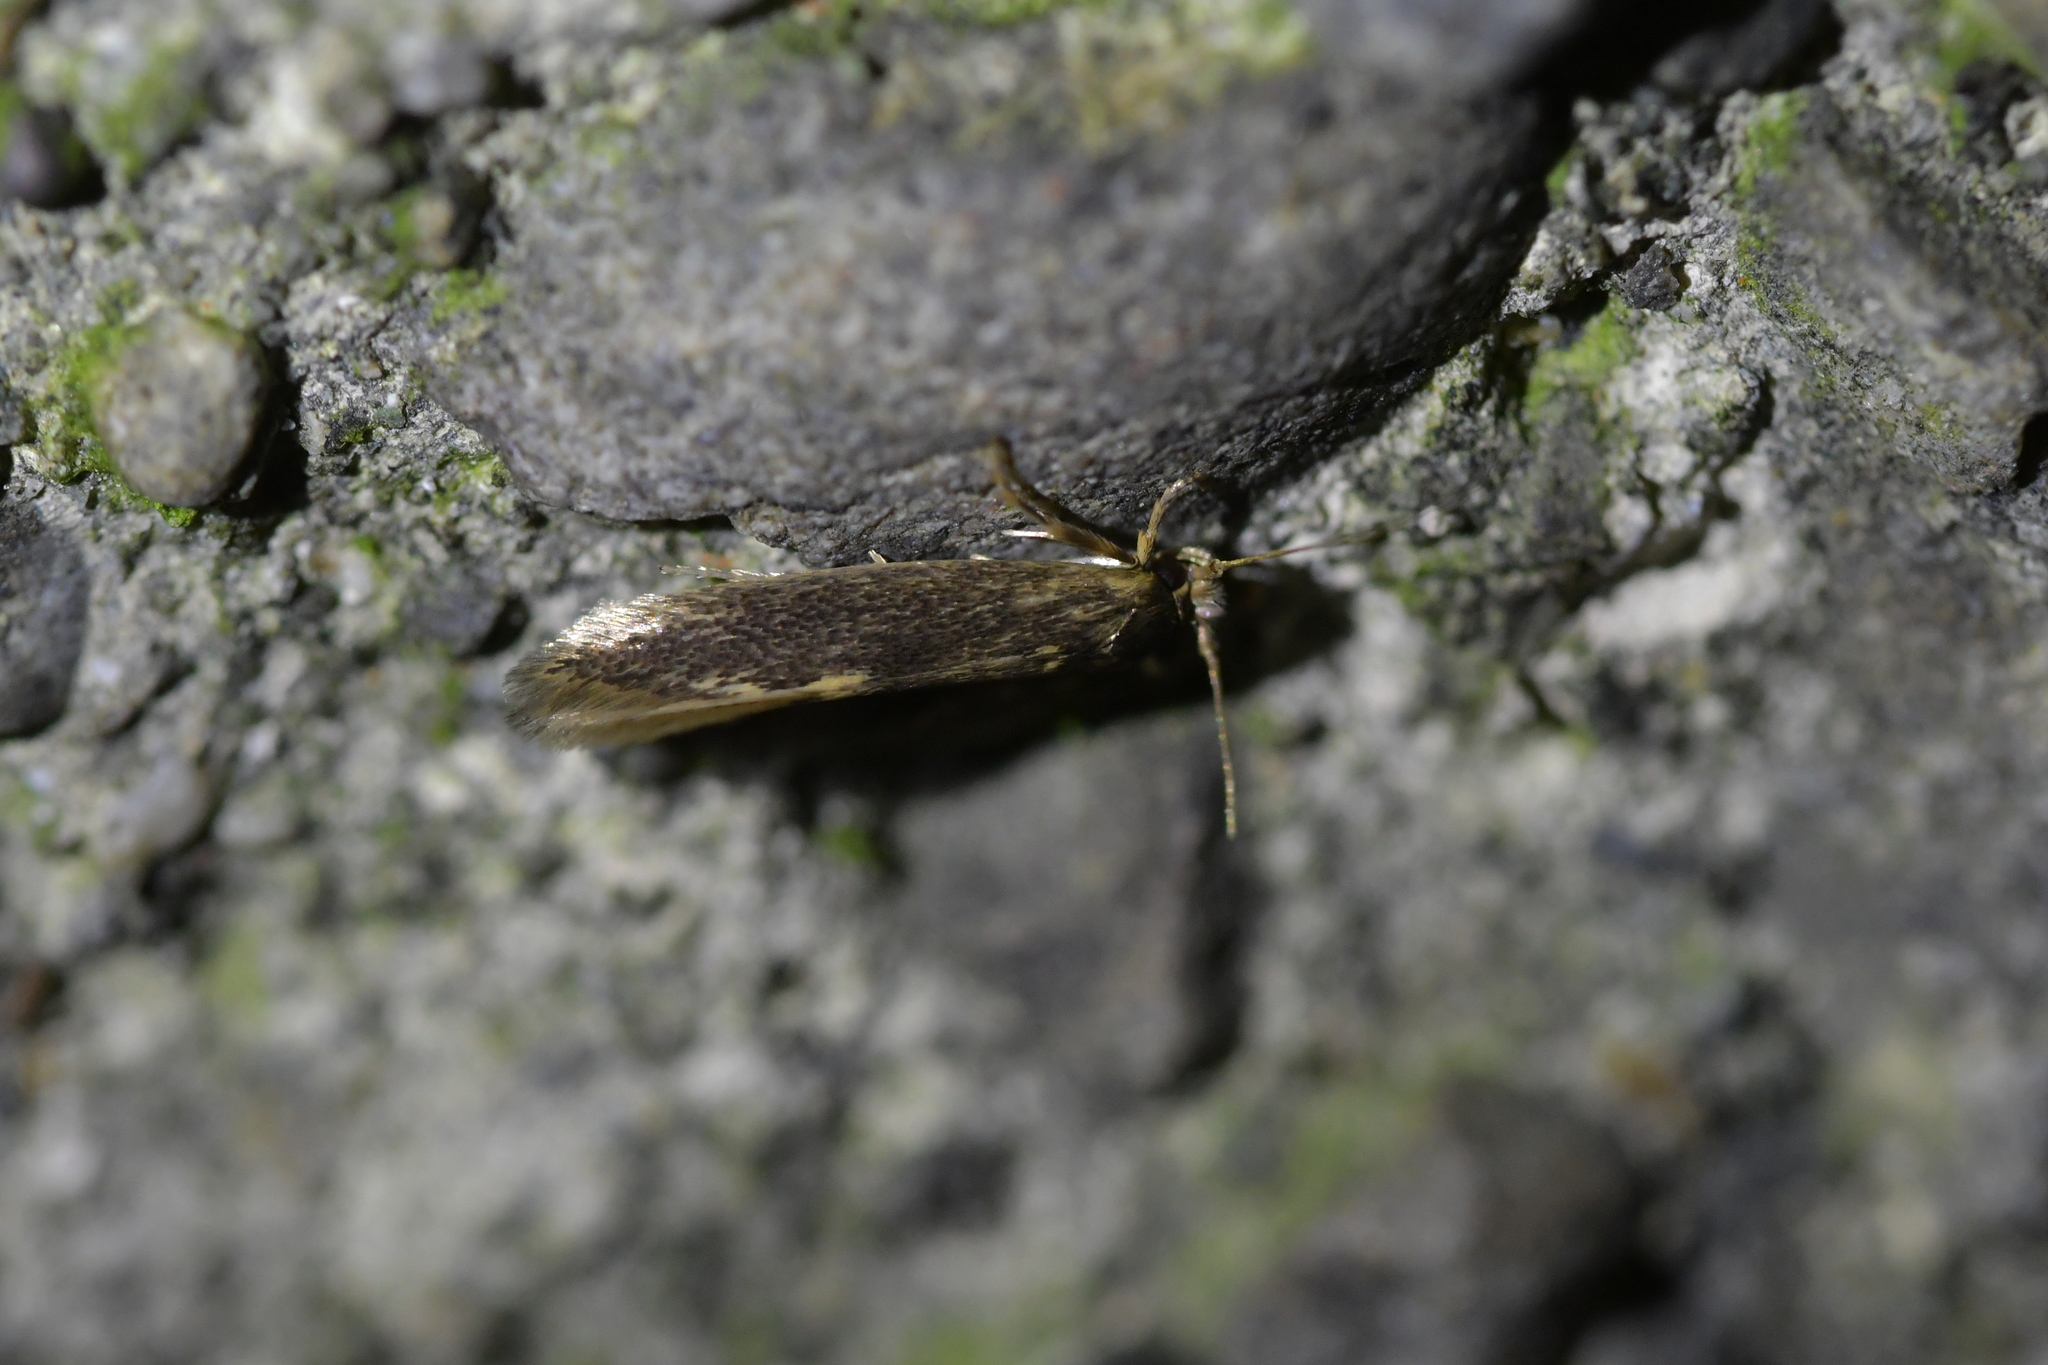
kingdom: Animalia
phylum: Arthropoda
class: Insecta
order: Lepidoptera
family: Tineidae
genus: Opogona
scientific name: Opogona omoscopa
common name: Moth
